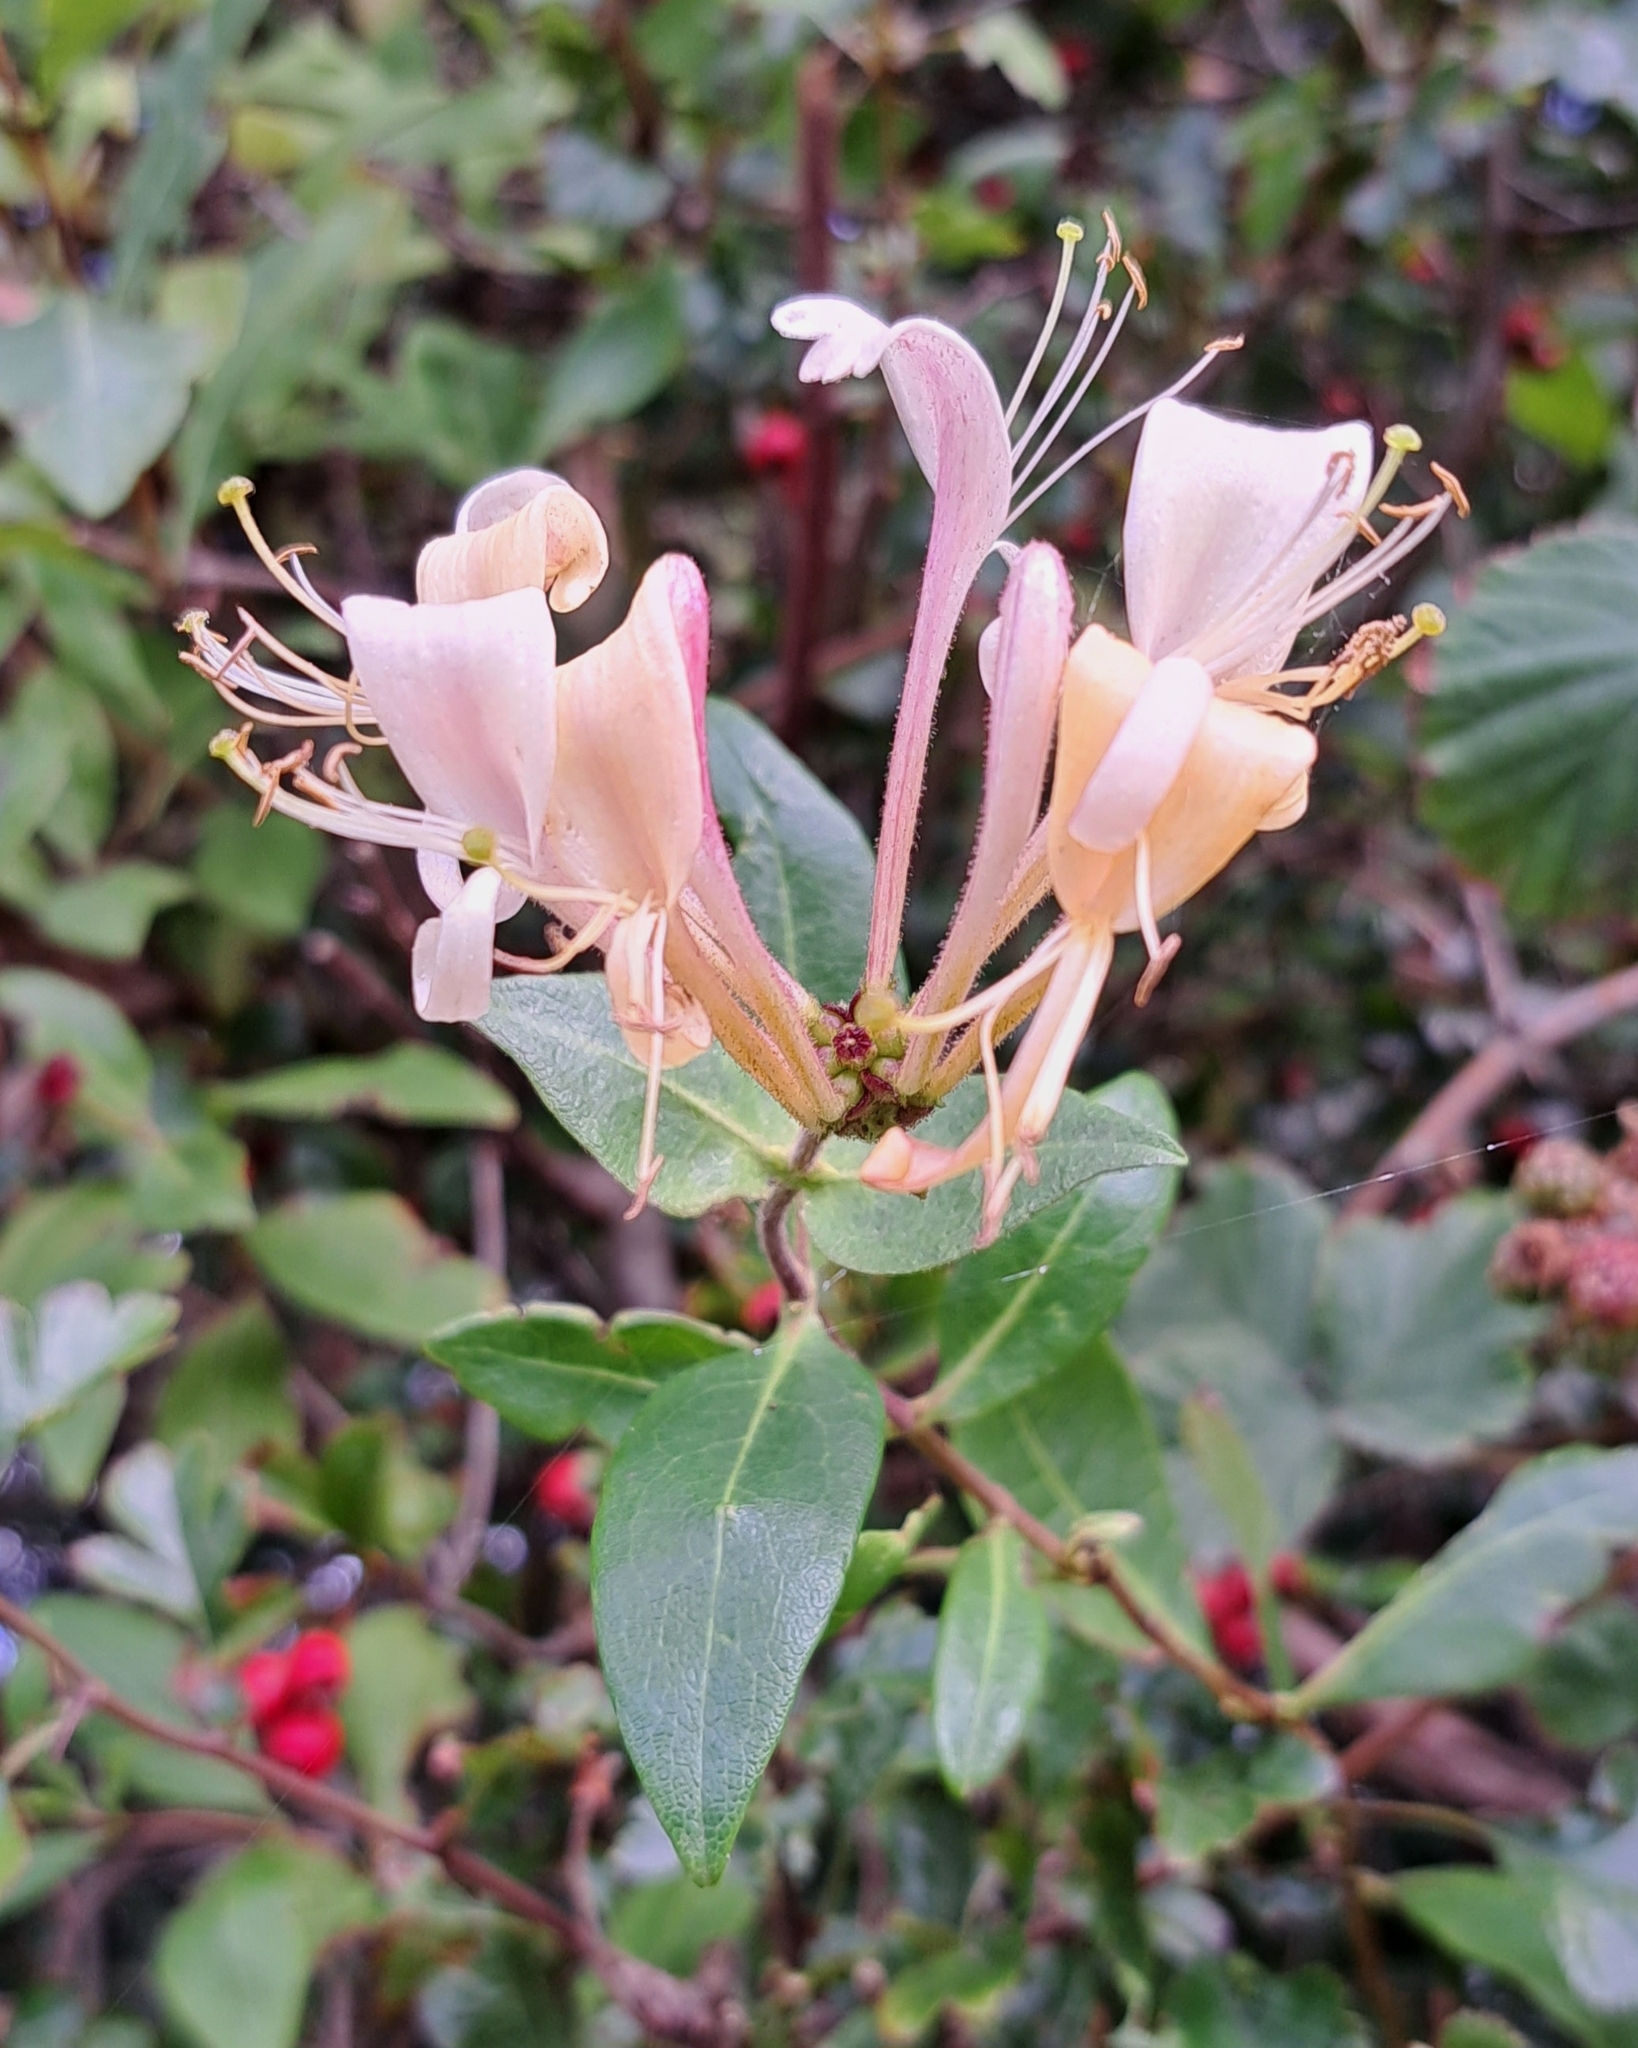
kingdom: Plantae
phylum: Tracheophyta
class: Magnoliopsida
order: Dipsacales
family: Caprifoliaceae
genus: Lonicera
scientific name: Lonicera periclymenum
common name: European honeysuckle
